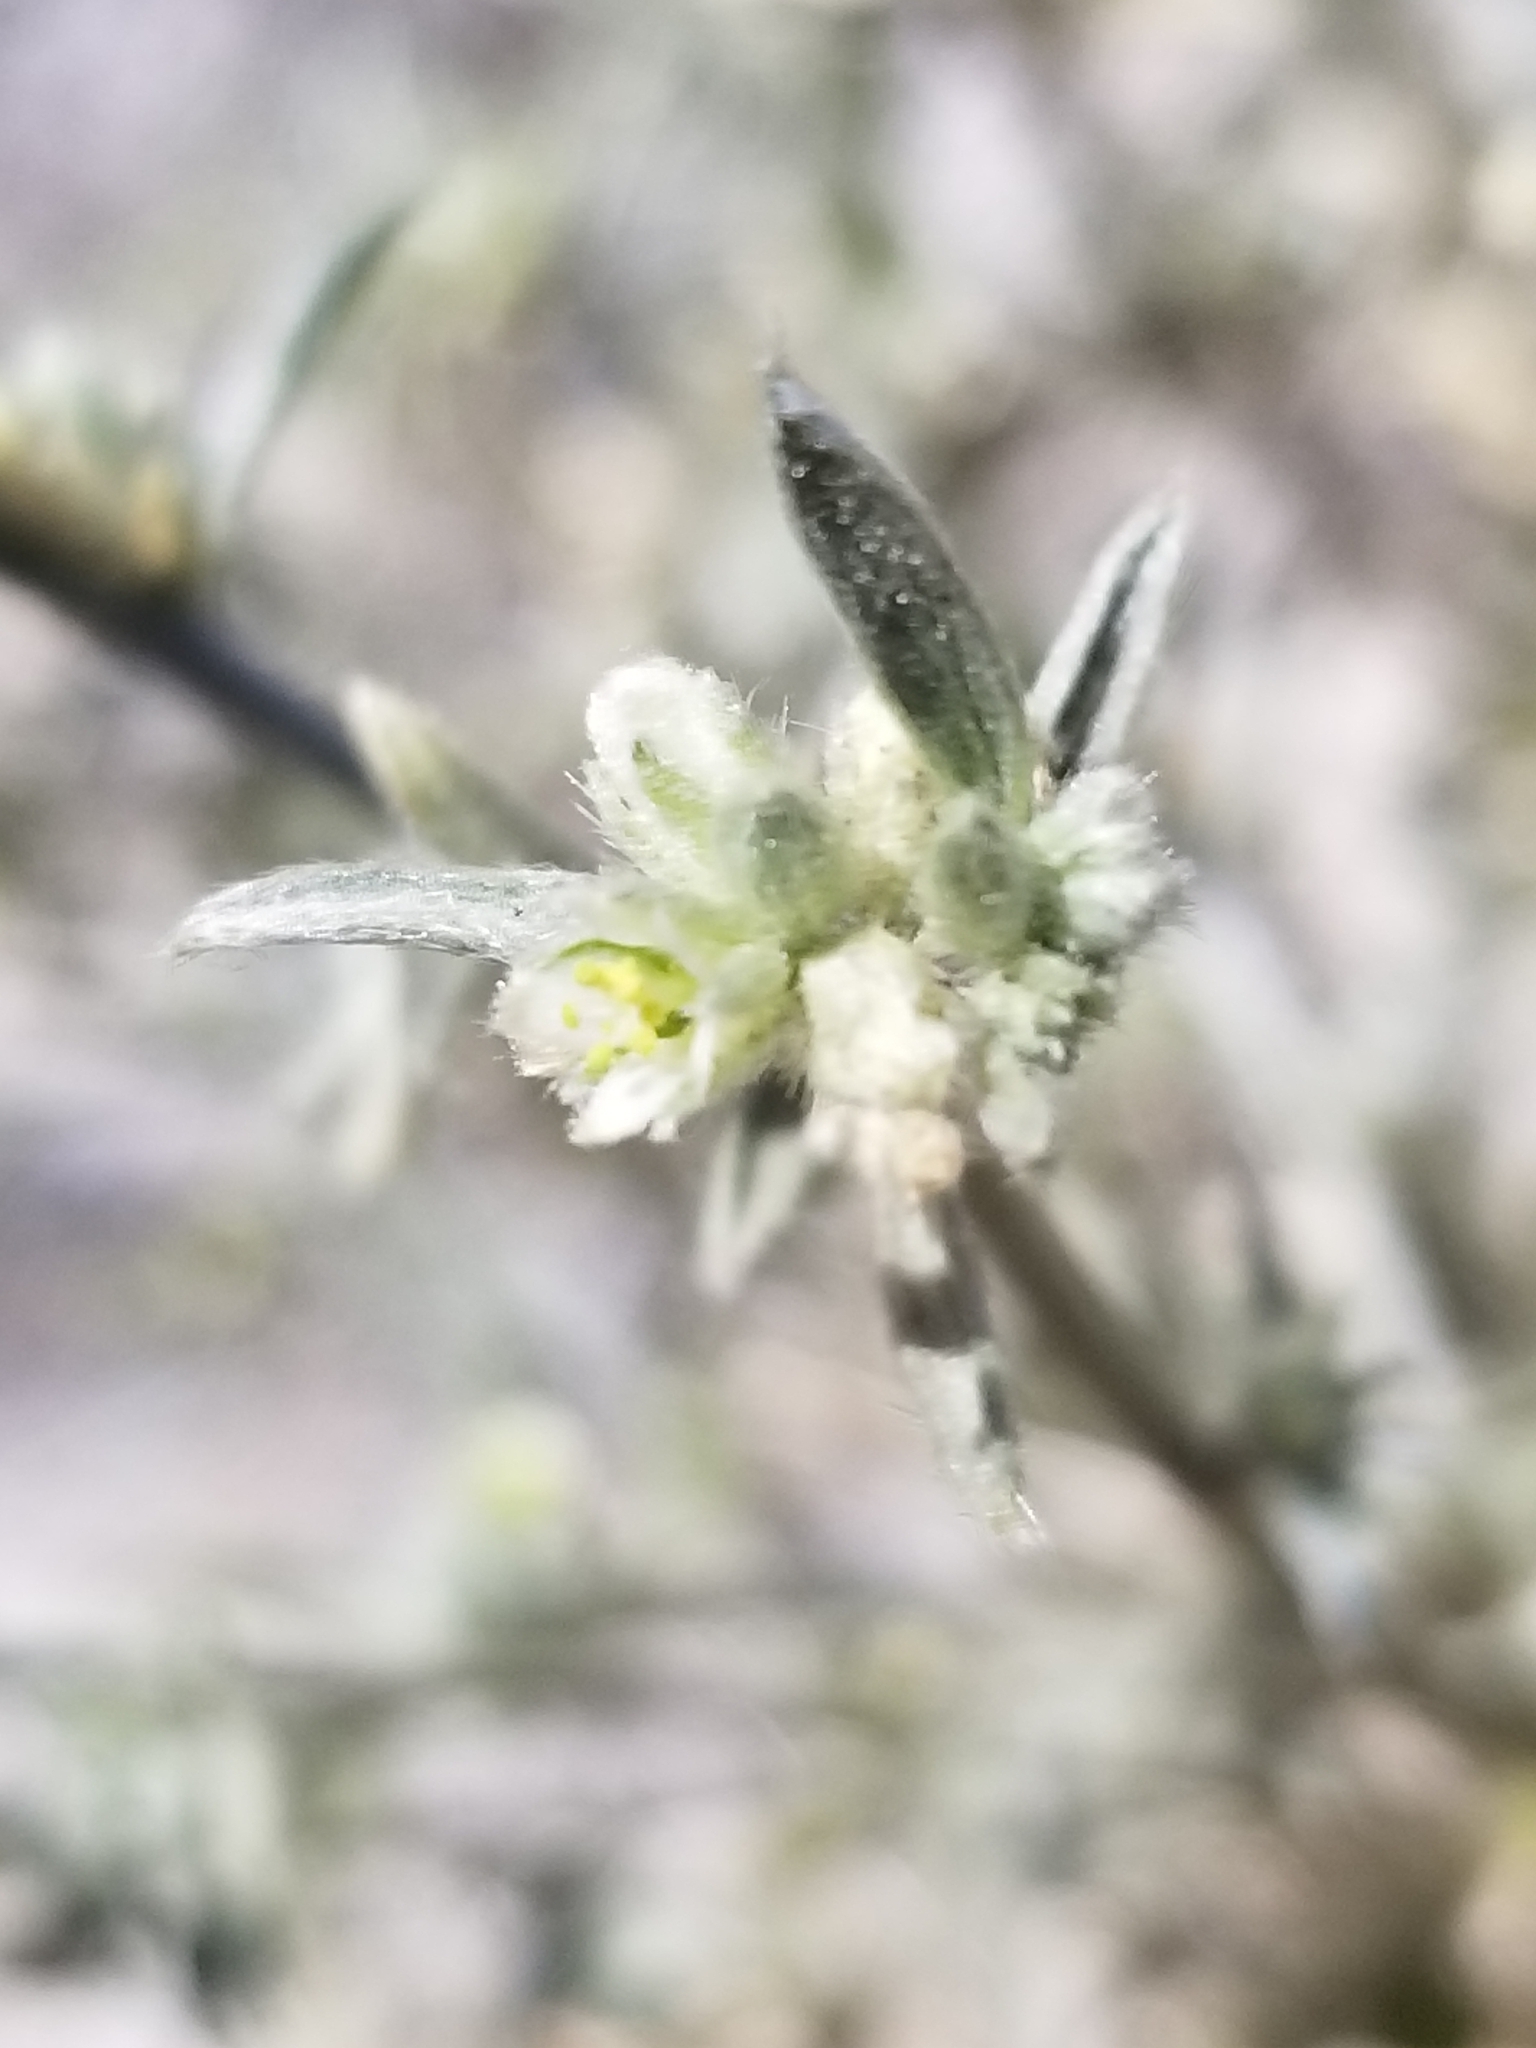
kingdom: Plantae
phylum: Tracheophyta
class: Magnoliopsida
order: Malpighiales
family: Euphorbiaceae
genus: Ditaxis
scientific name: Ditaxis lanceolata
